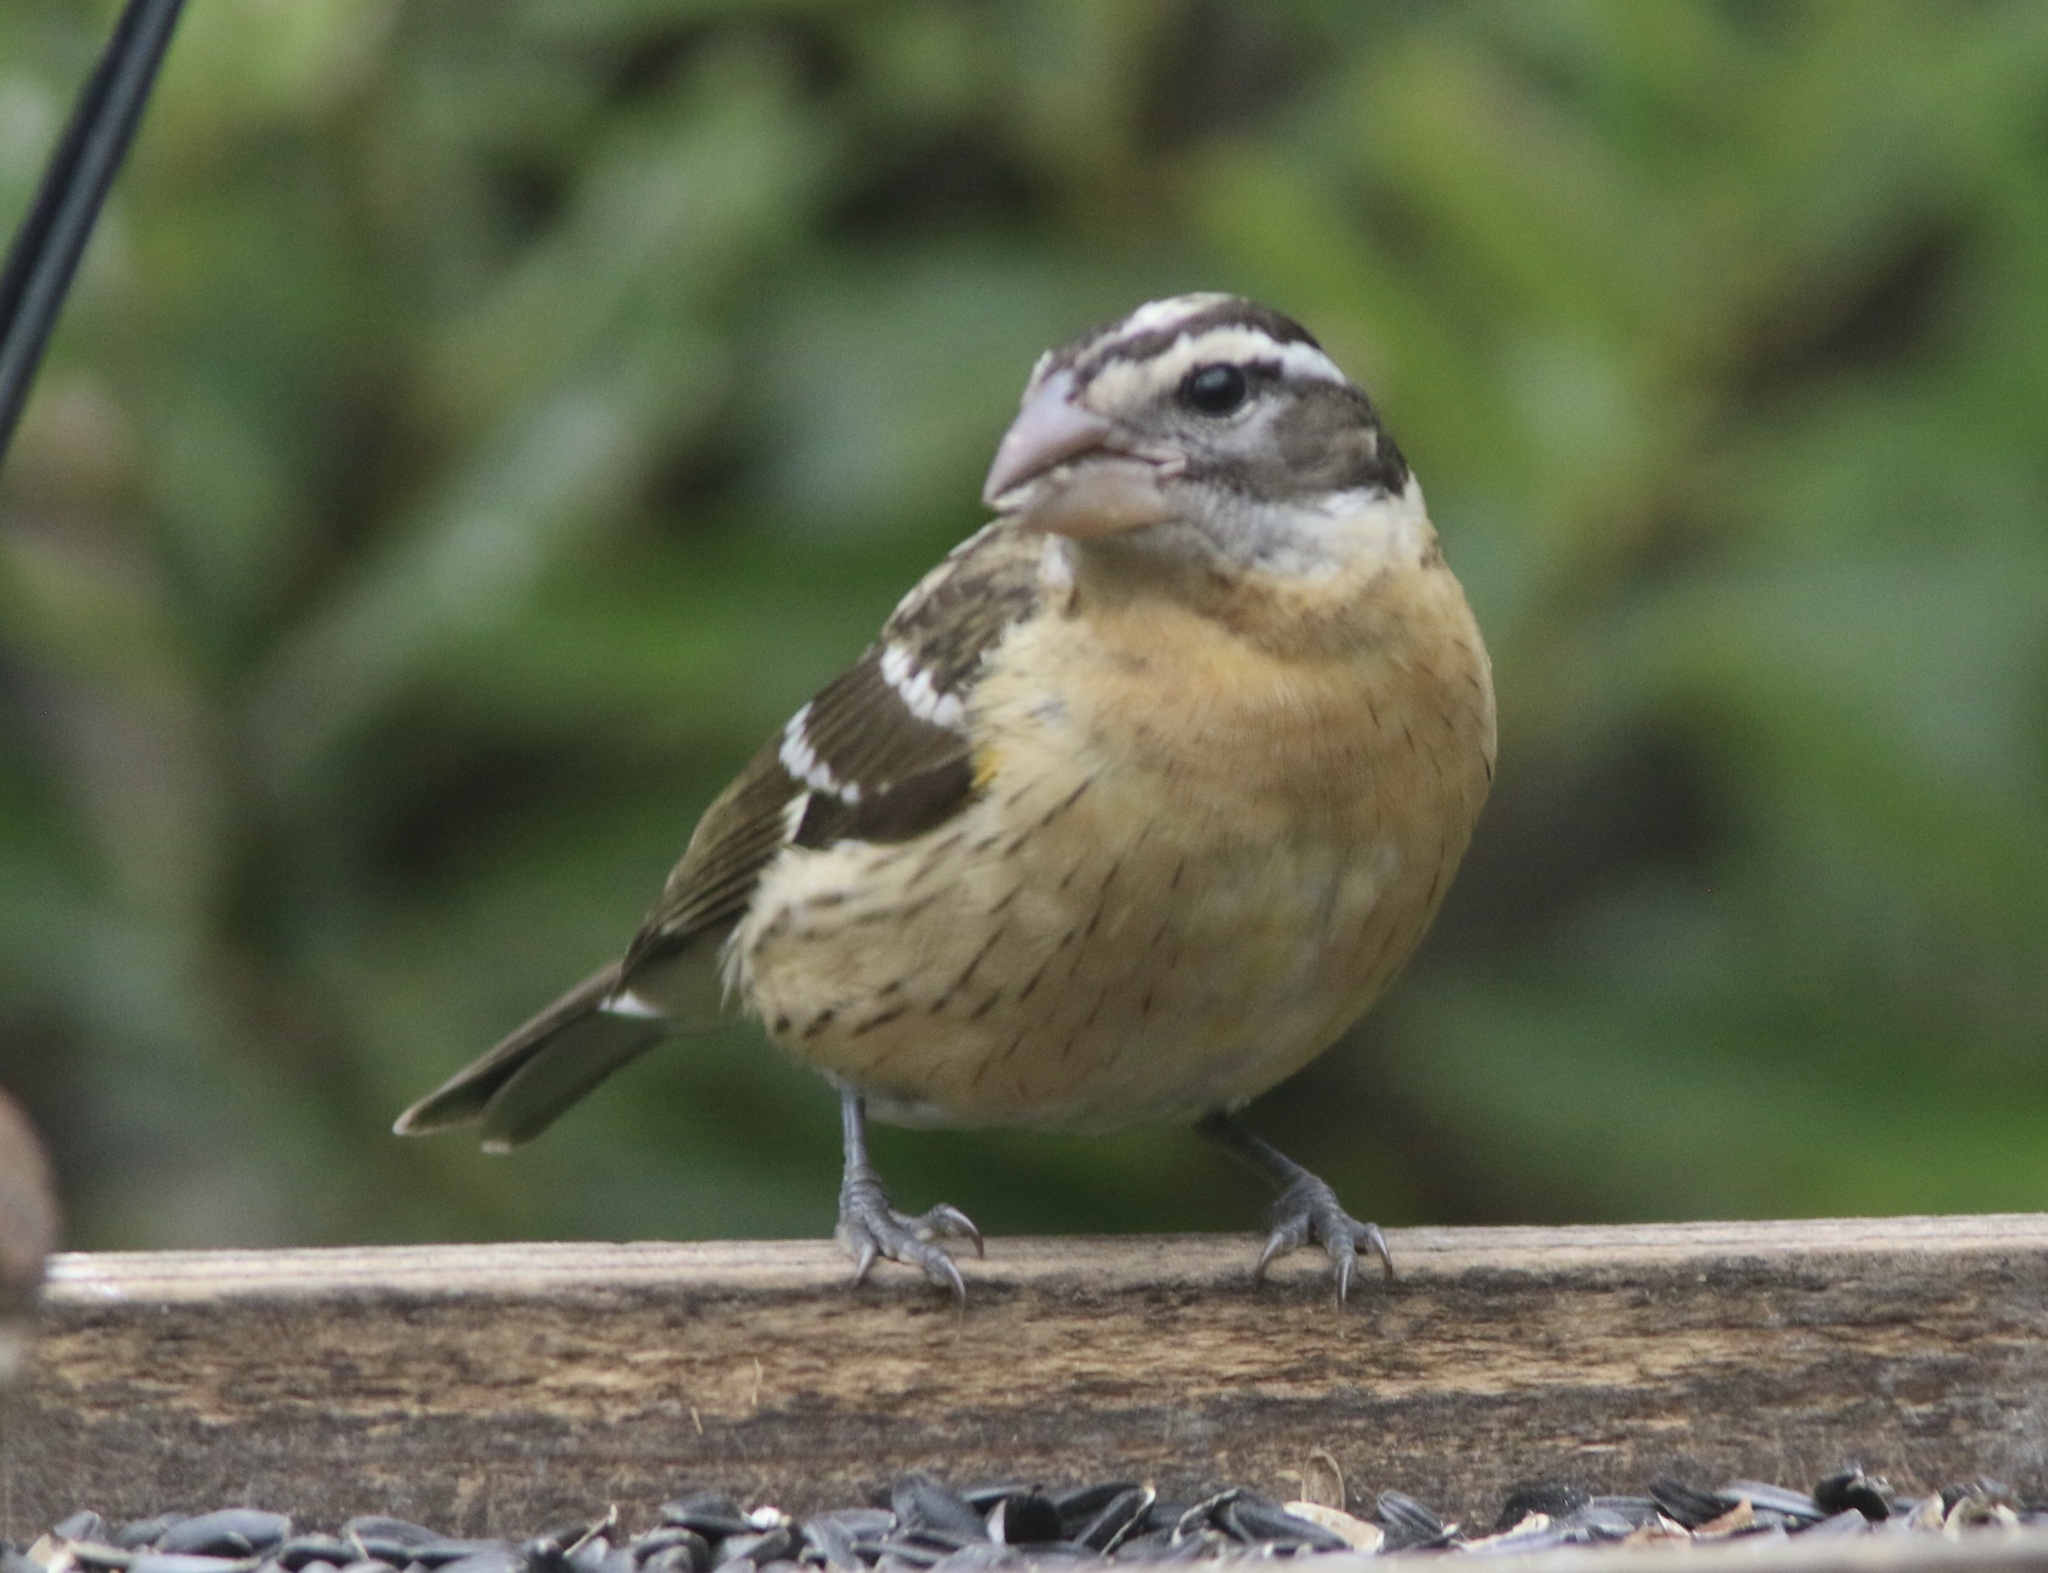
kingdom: Animalia
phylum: Chordata
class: Aves
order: Passeriformes
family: Cardinalidae
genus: Pheucticus
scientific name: Pheucticus melanocephalus
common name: Black-headed grosbeak
